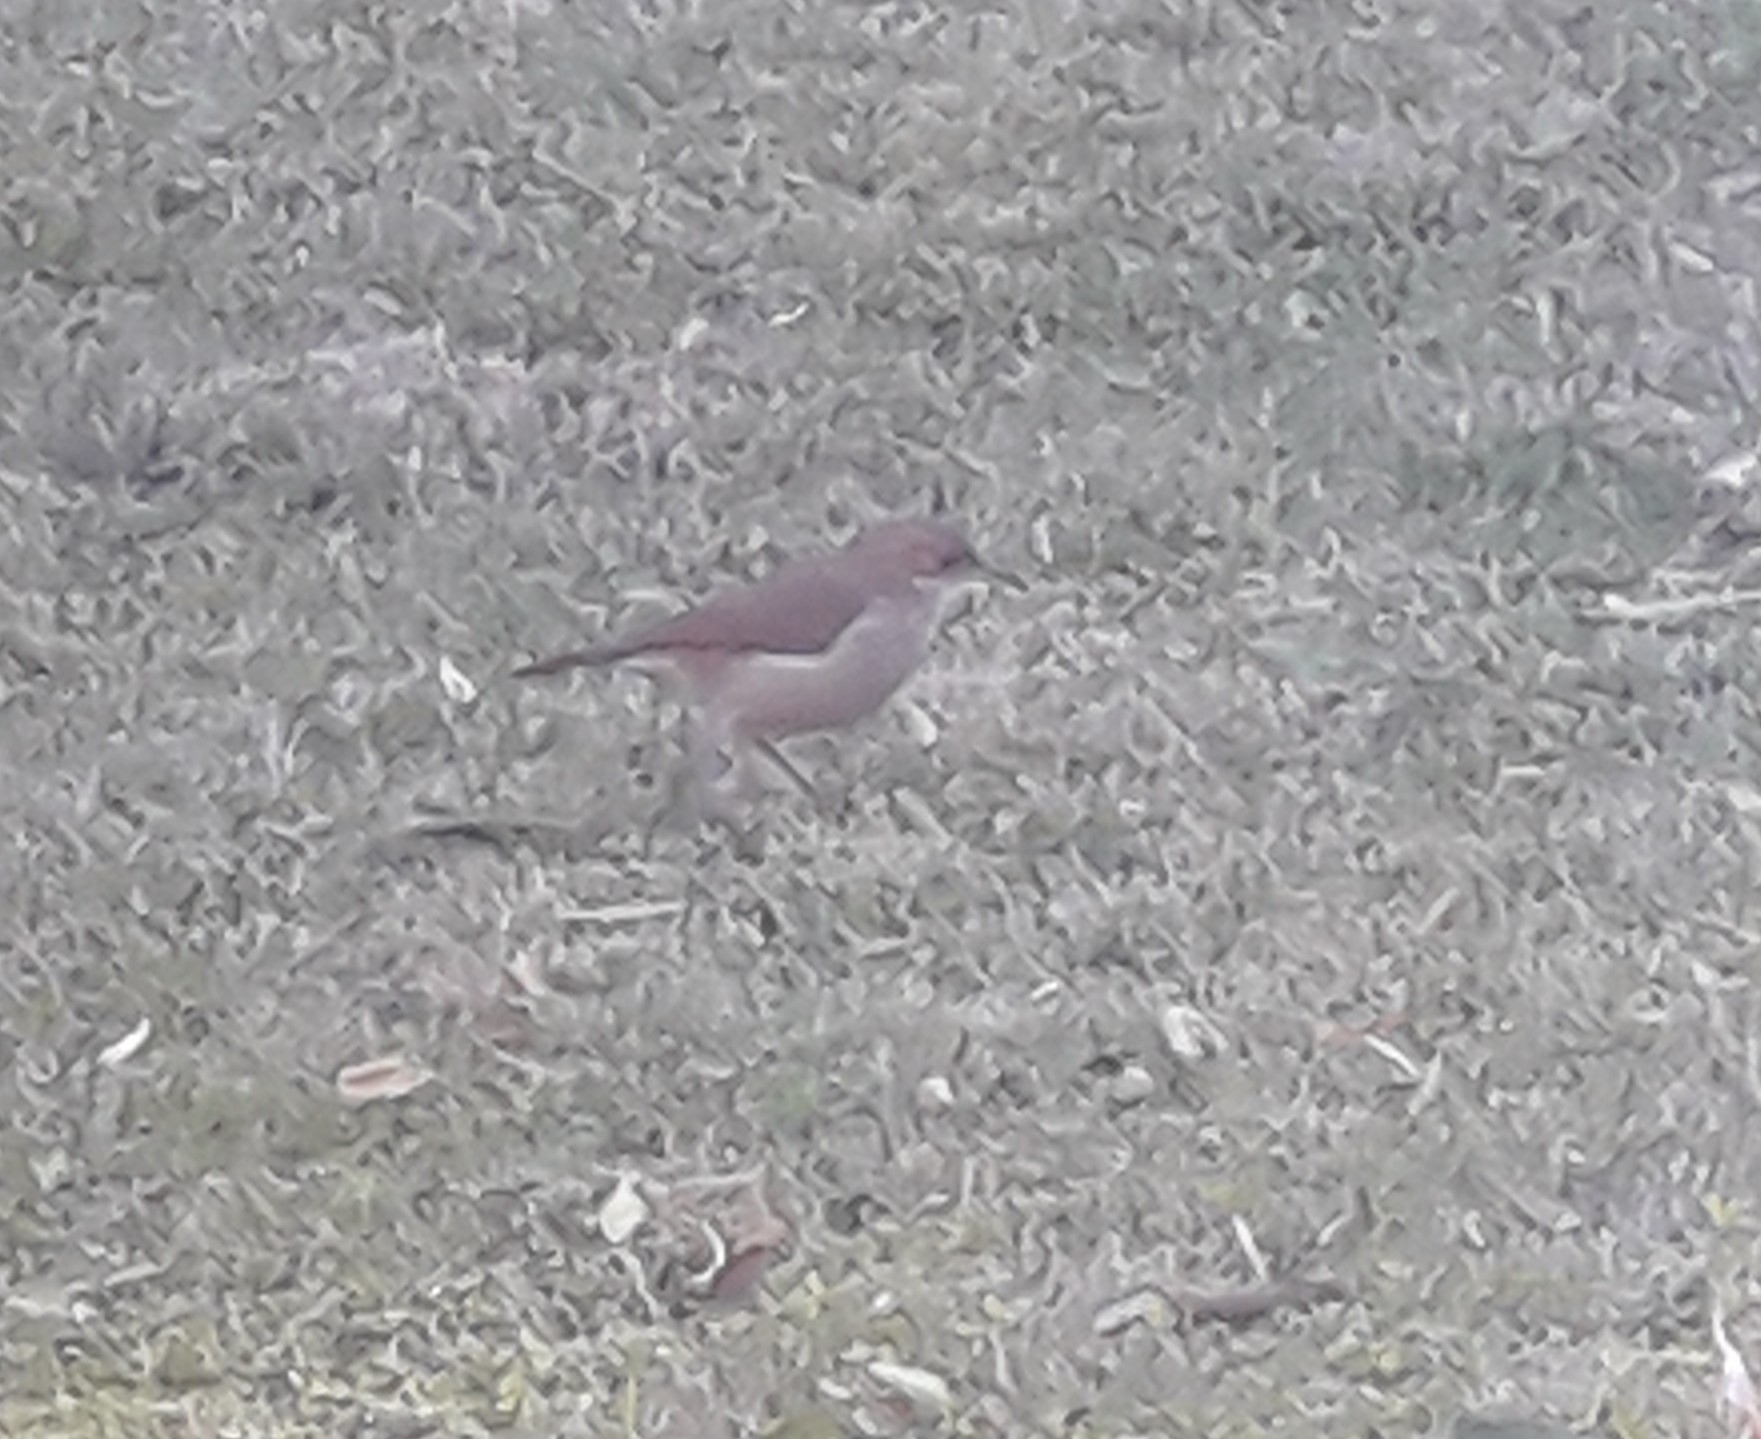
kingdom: Animalia
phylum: Chordata
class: Aves
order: Passeriformes
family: Furnariidae
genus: Furnarius
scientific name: Furnarius rufus
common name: Rufous hornero
